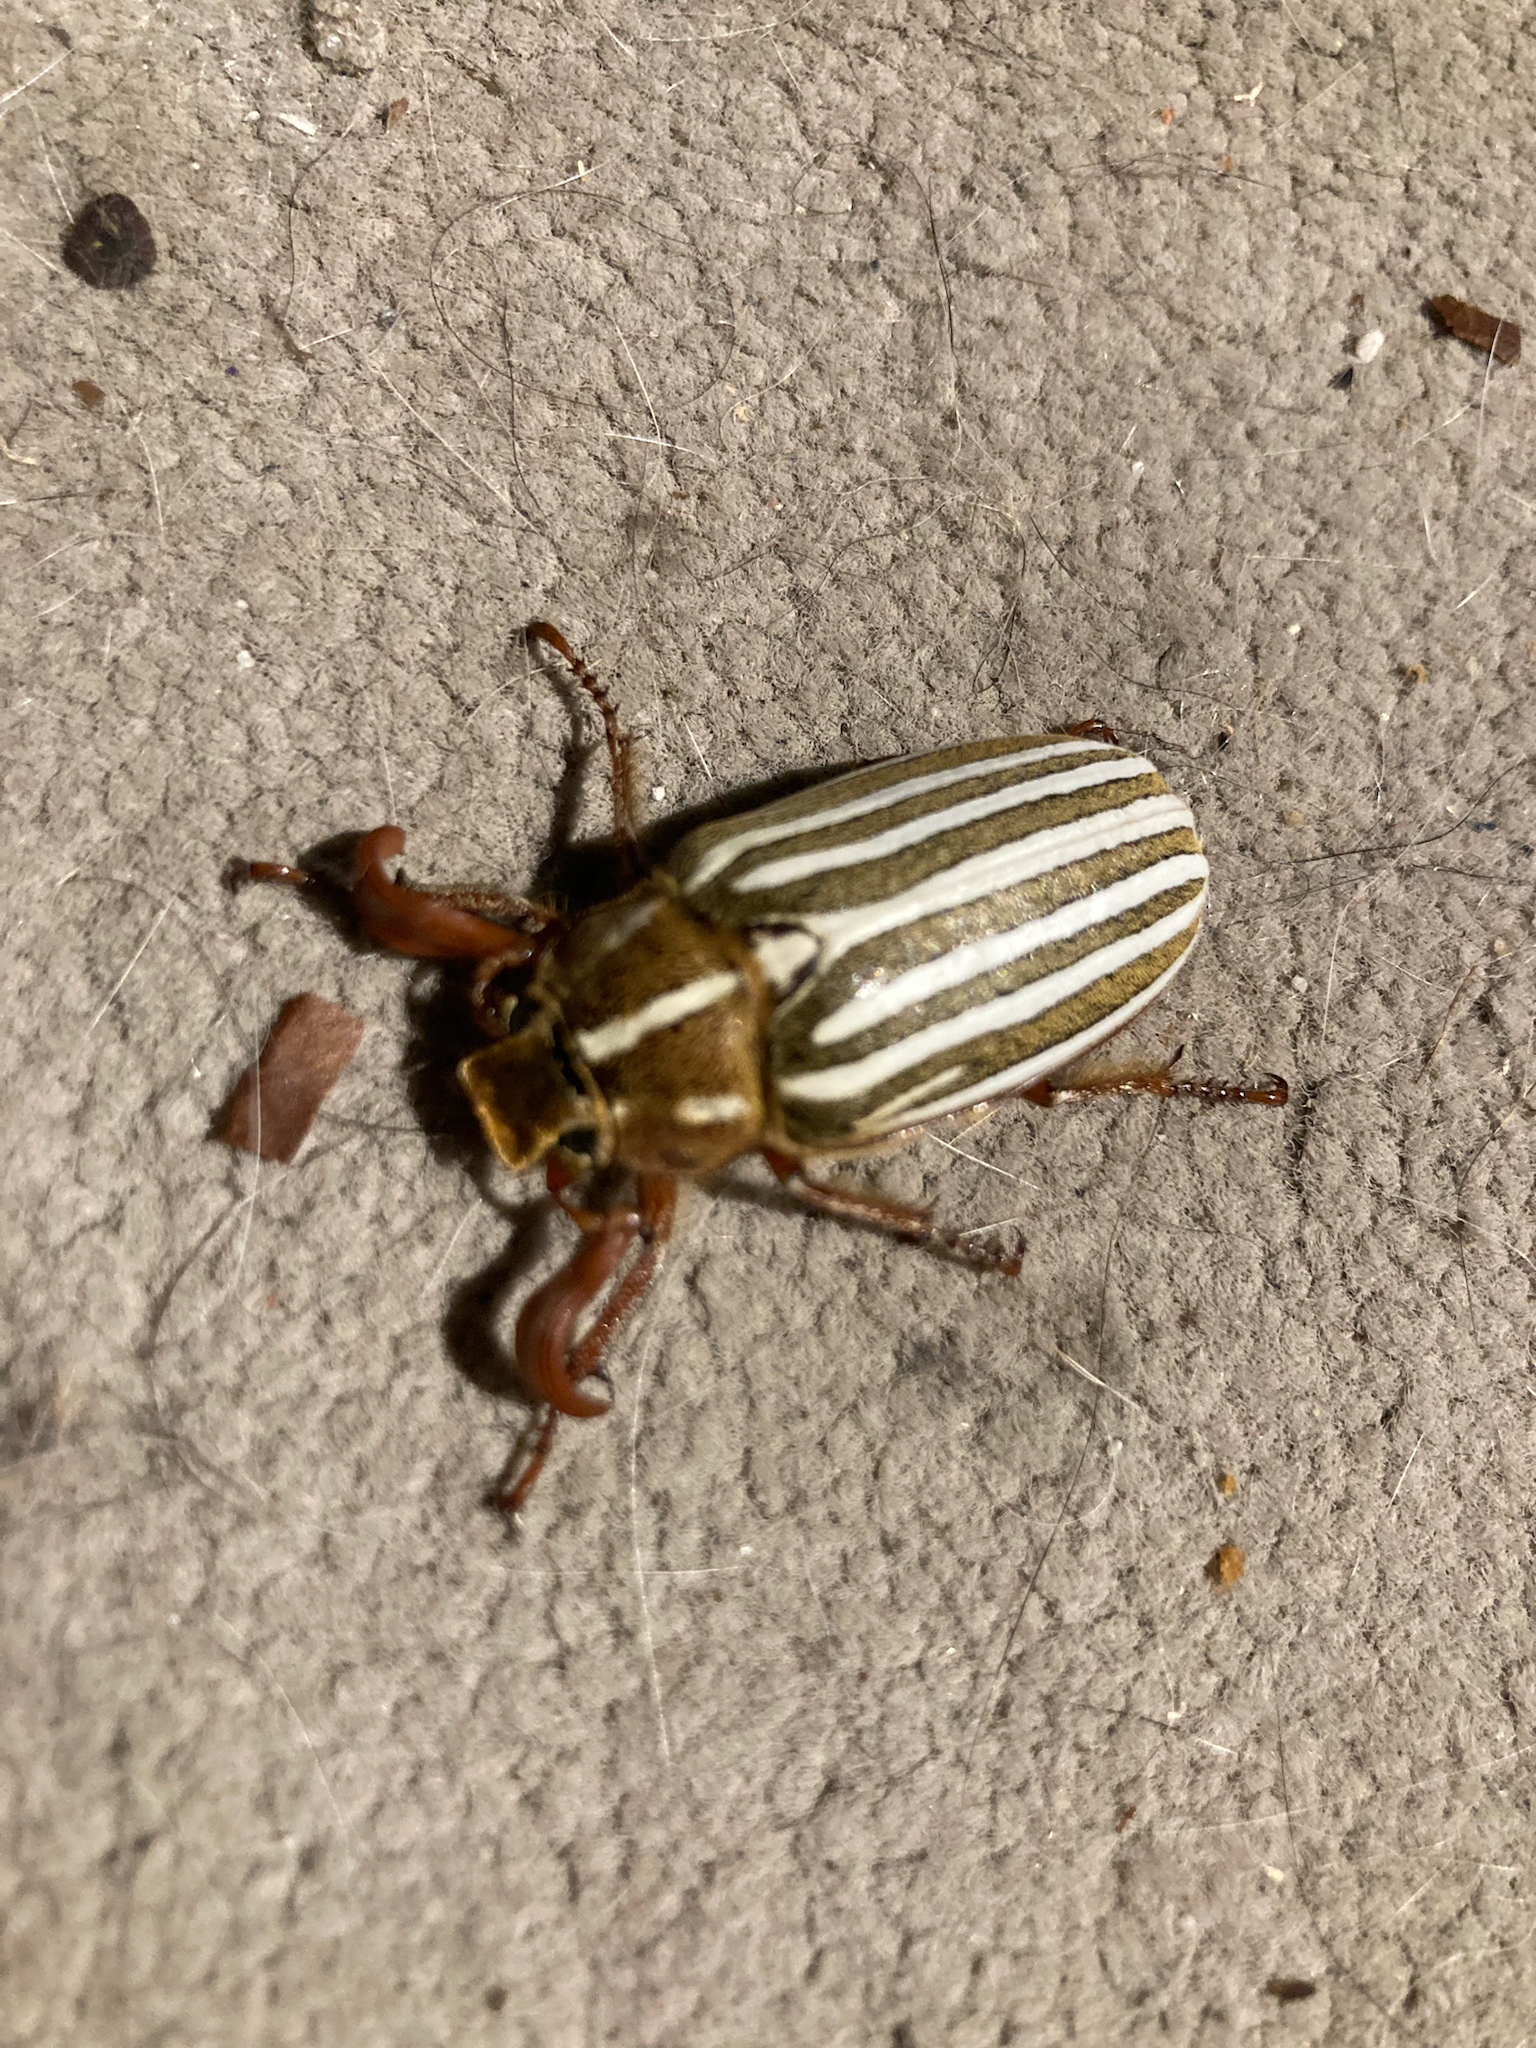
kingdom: Animalia
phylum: Arthropoda
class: Insecta
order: Coleoptera
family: Scarabaeidae
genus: Polyphylla
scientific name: Polyphylla decemlineata
